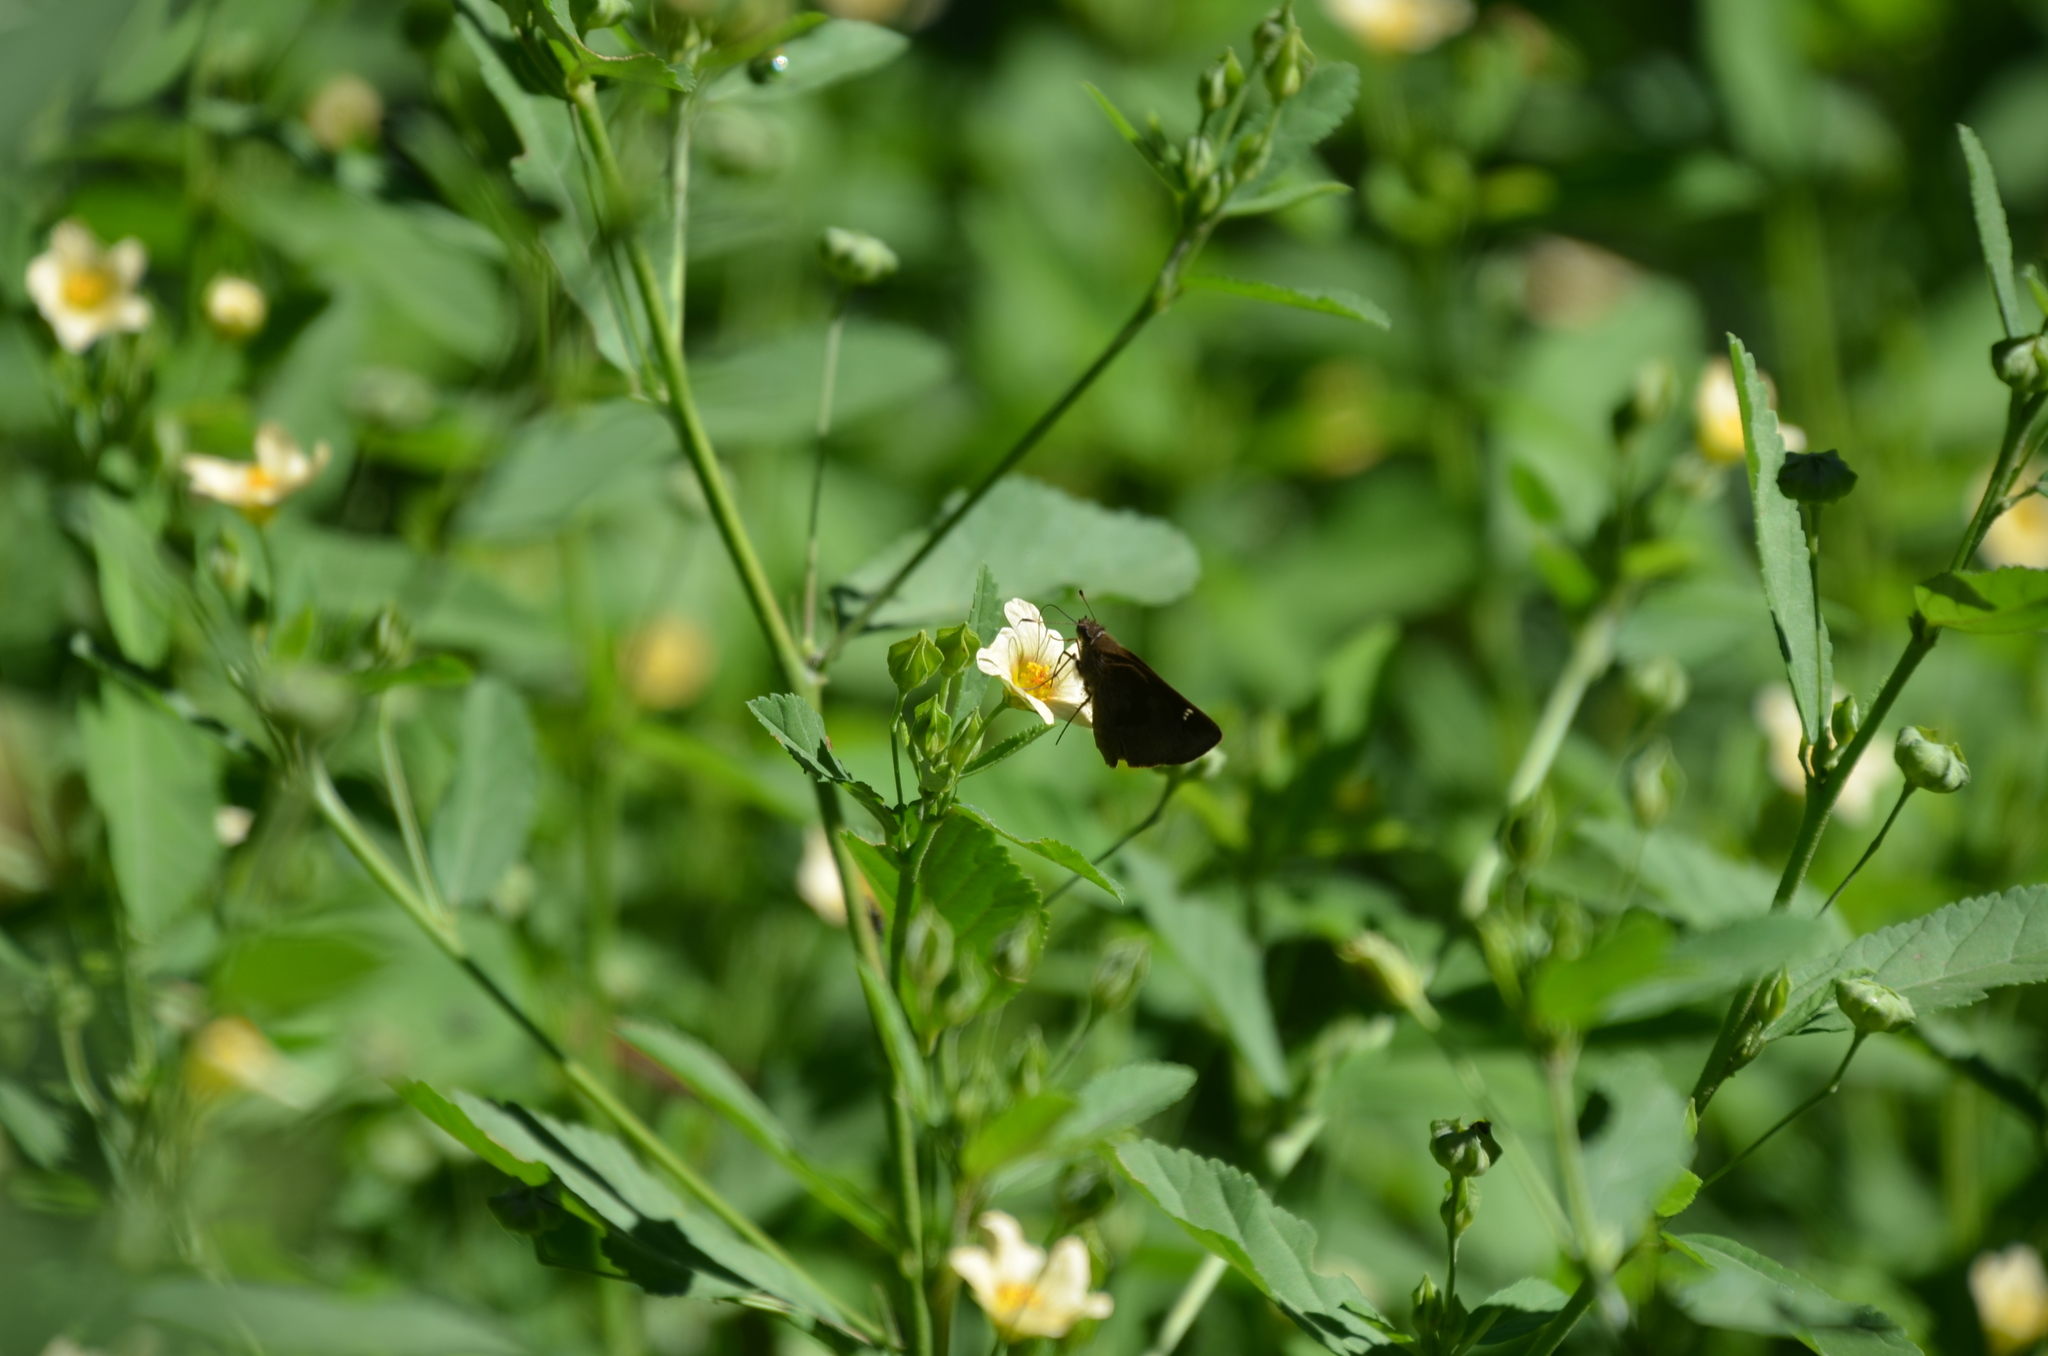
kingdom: Animalia
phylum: Arthropoda
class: Insecta
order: Lepidoptera
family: Hesperiidae
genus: Cymaenes
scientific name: Cymaenes
